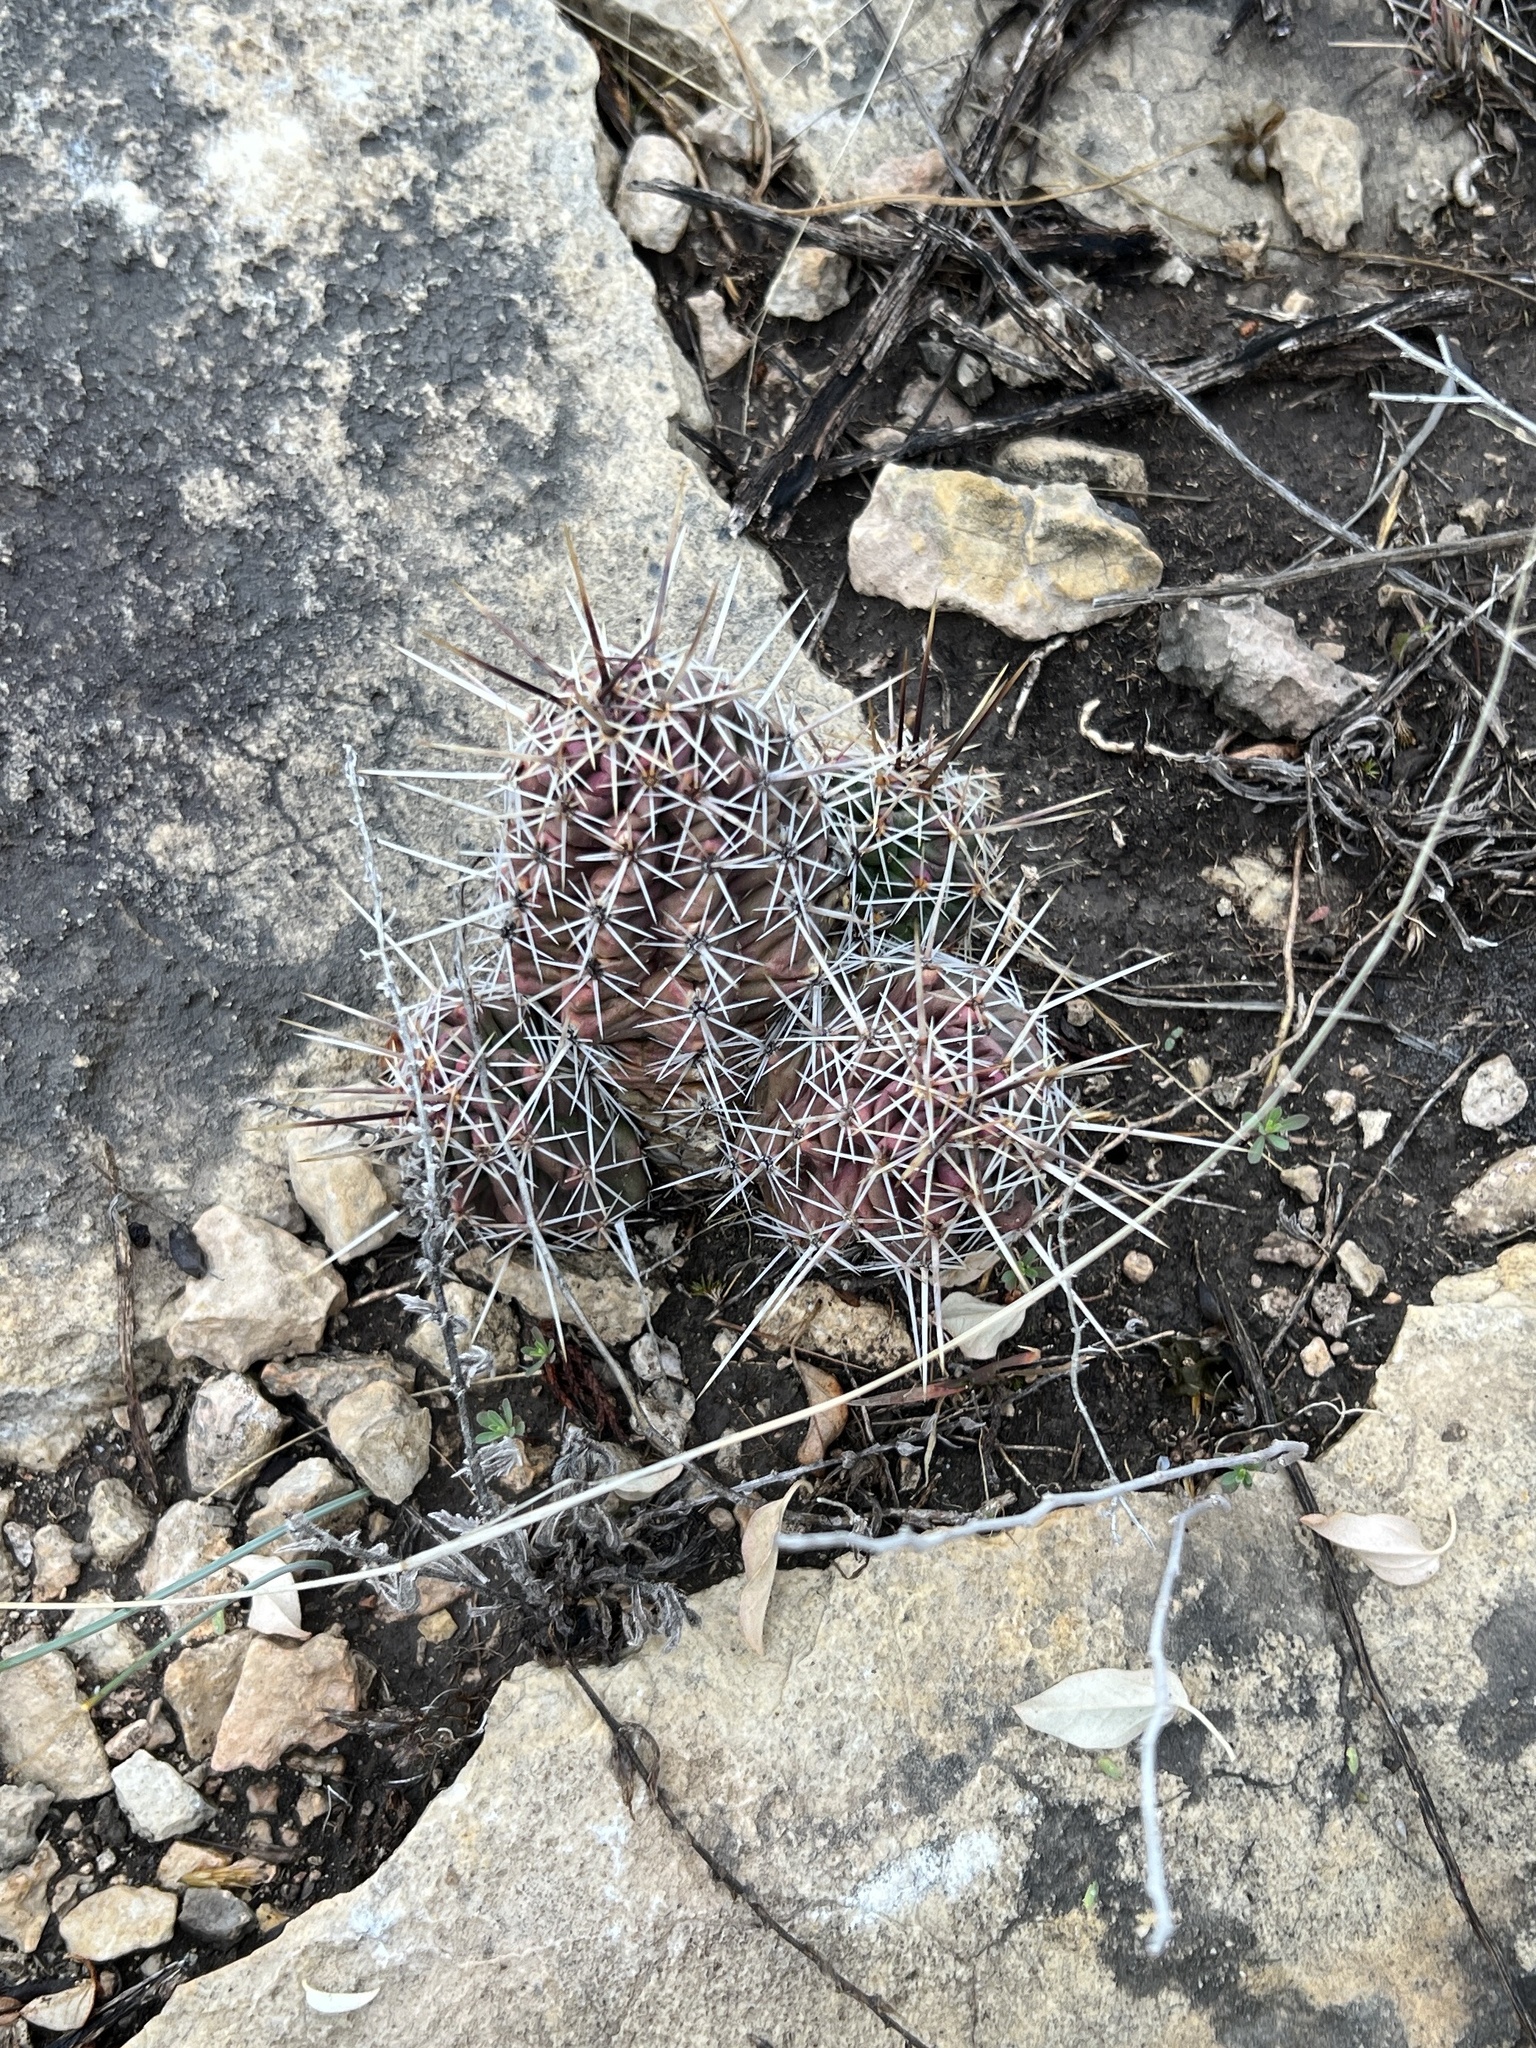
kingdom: Plantae
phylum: Tracheophyta
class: Magnoliopsida
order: Caryophyllales
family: Cactaceae
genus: Echinocereus
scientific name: Echinocereus enneacanthus
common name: Pitaya
